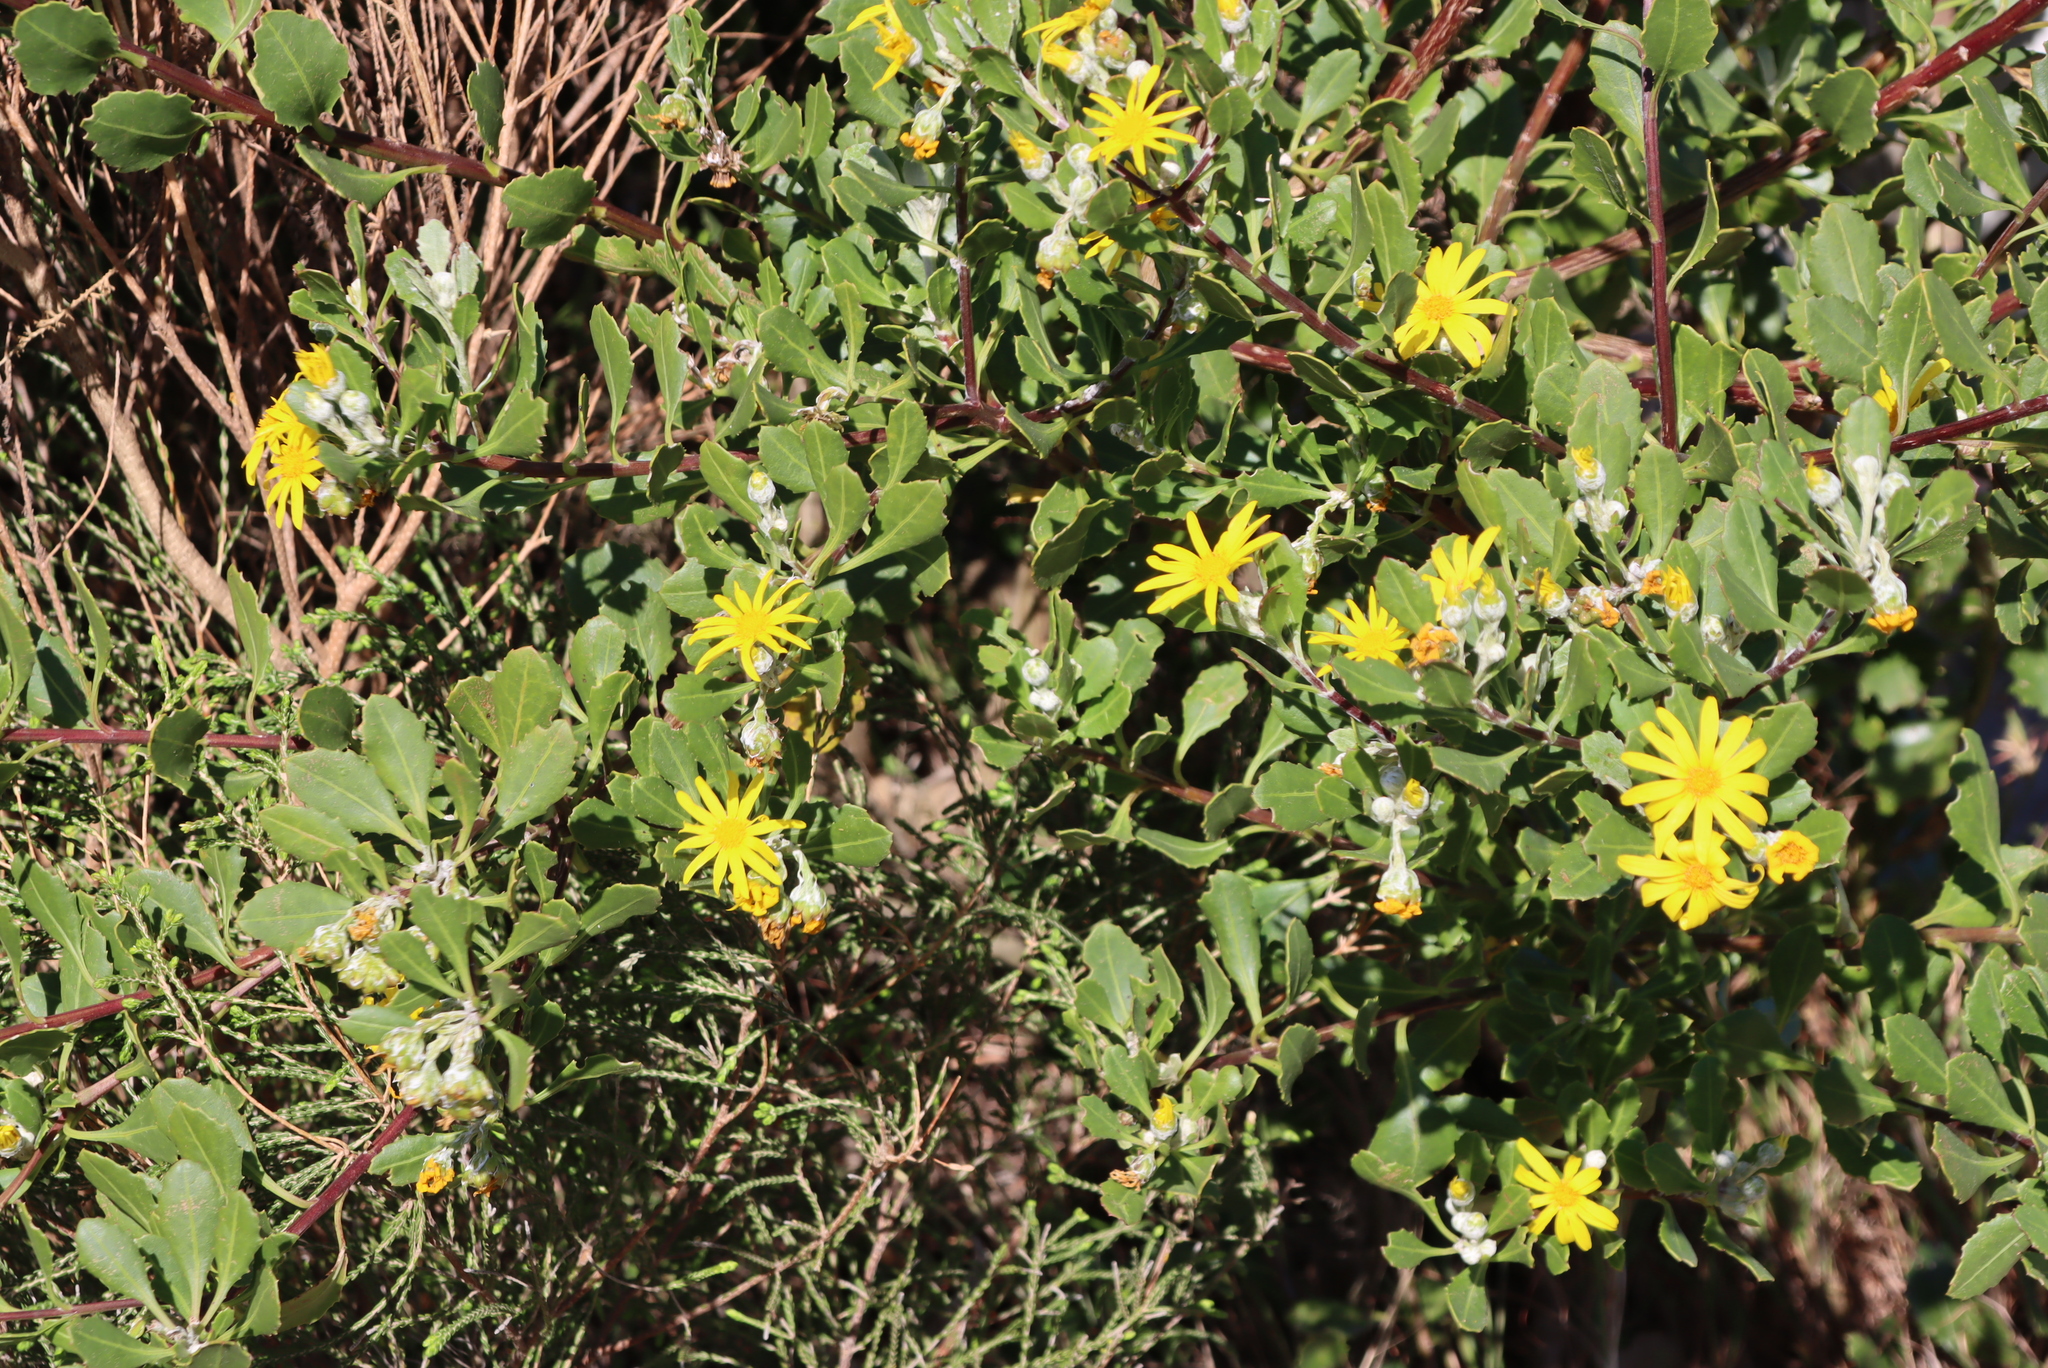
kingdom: Plantae
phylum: Tracheophyta
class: Magnoliopsida
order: Asterales
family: Asteraceae
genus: Osteospermum
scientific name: Osteospermum moniliferum
